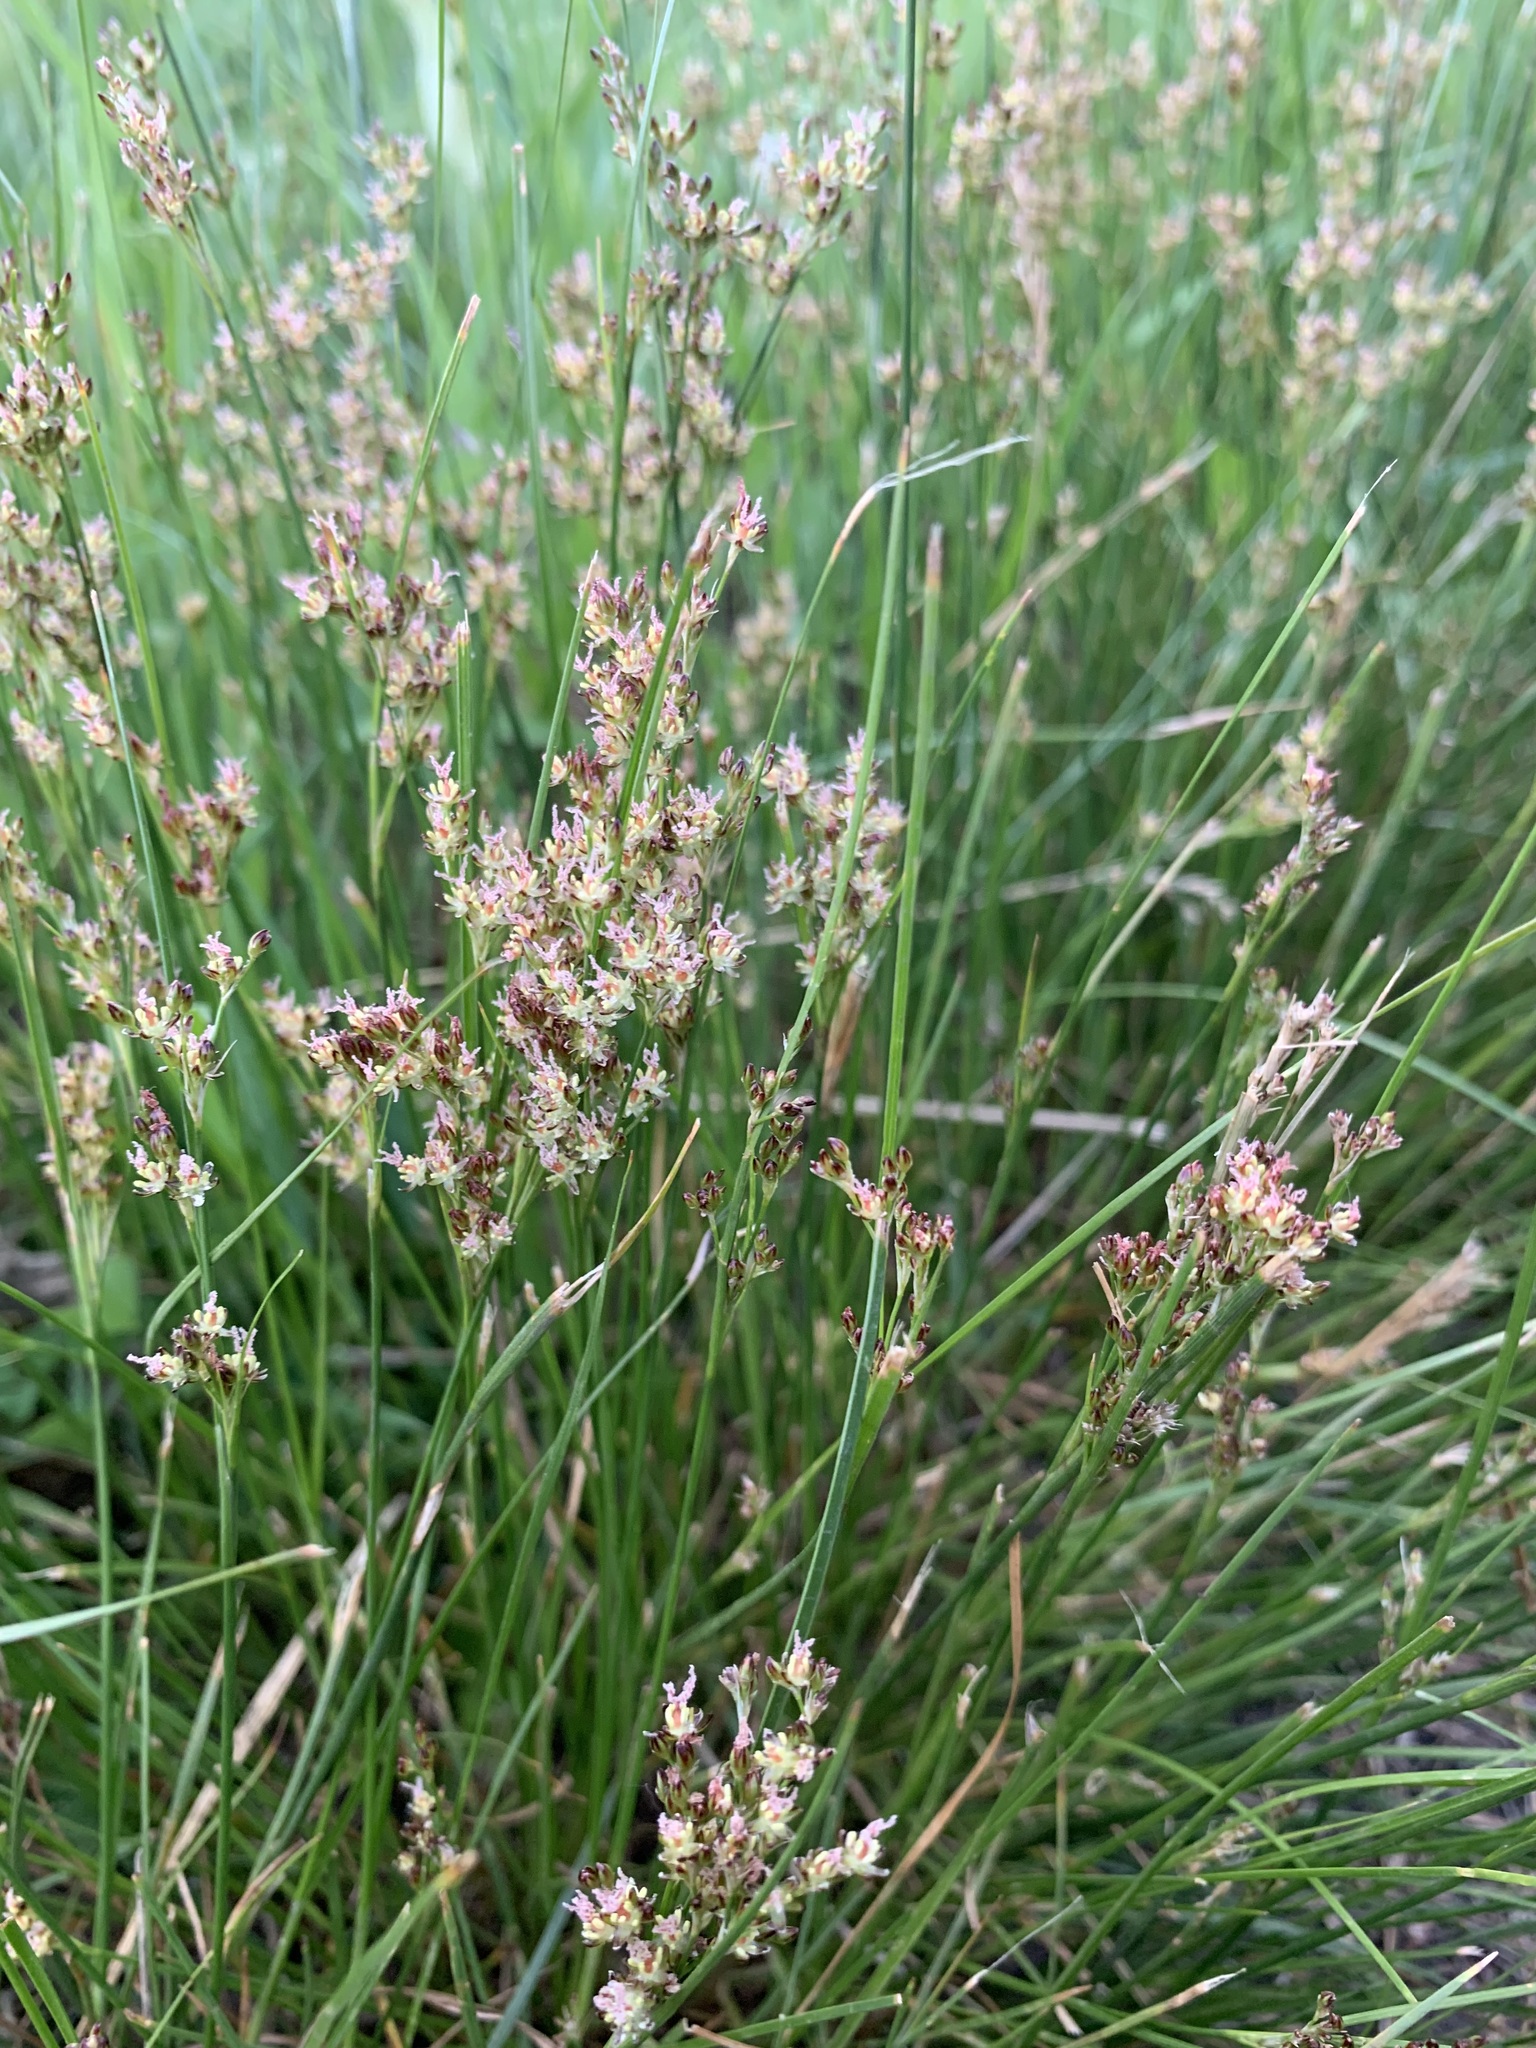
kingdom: Plantae
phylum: Tracheophyta
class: Liliopsida
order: Poales
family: Juncaceae
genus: Juncus
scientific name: Juncus gerardi
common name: Saltmarsh rush
